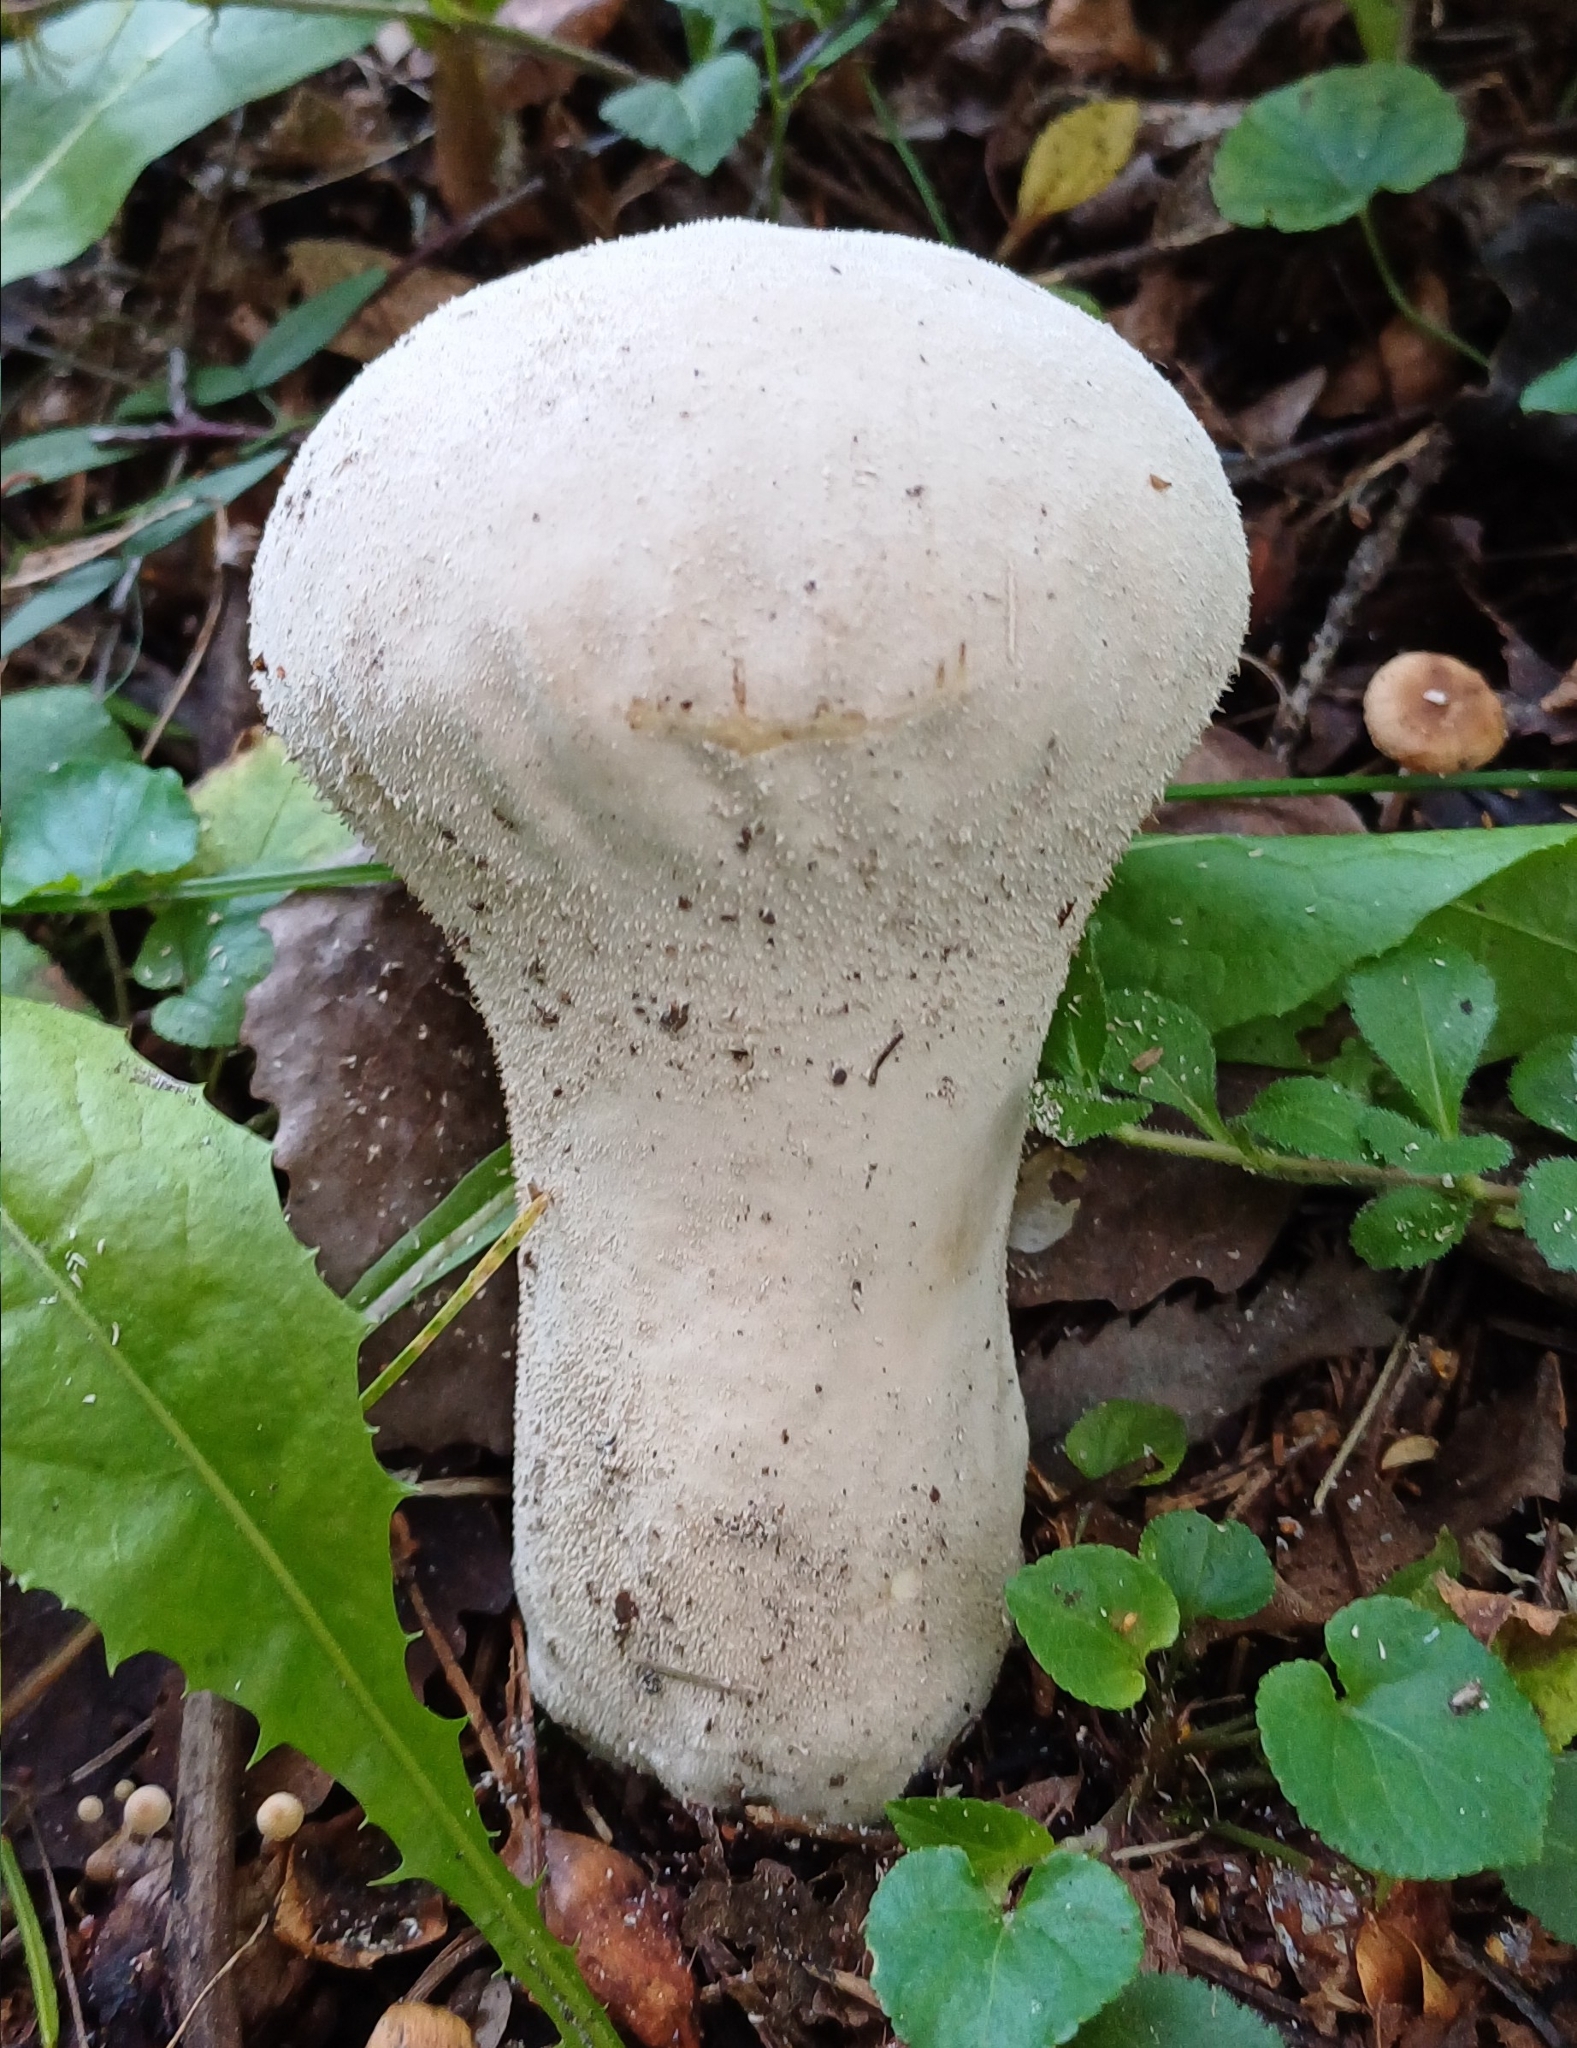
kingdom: Fungi
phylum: Basidiomycota
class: Agaricomycetes
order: Agaricales
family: Lycoperdaceae
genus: Lycoperdon
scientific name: Lycoperdon excipuliforme
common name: Pestle puffball
